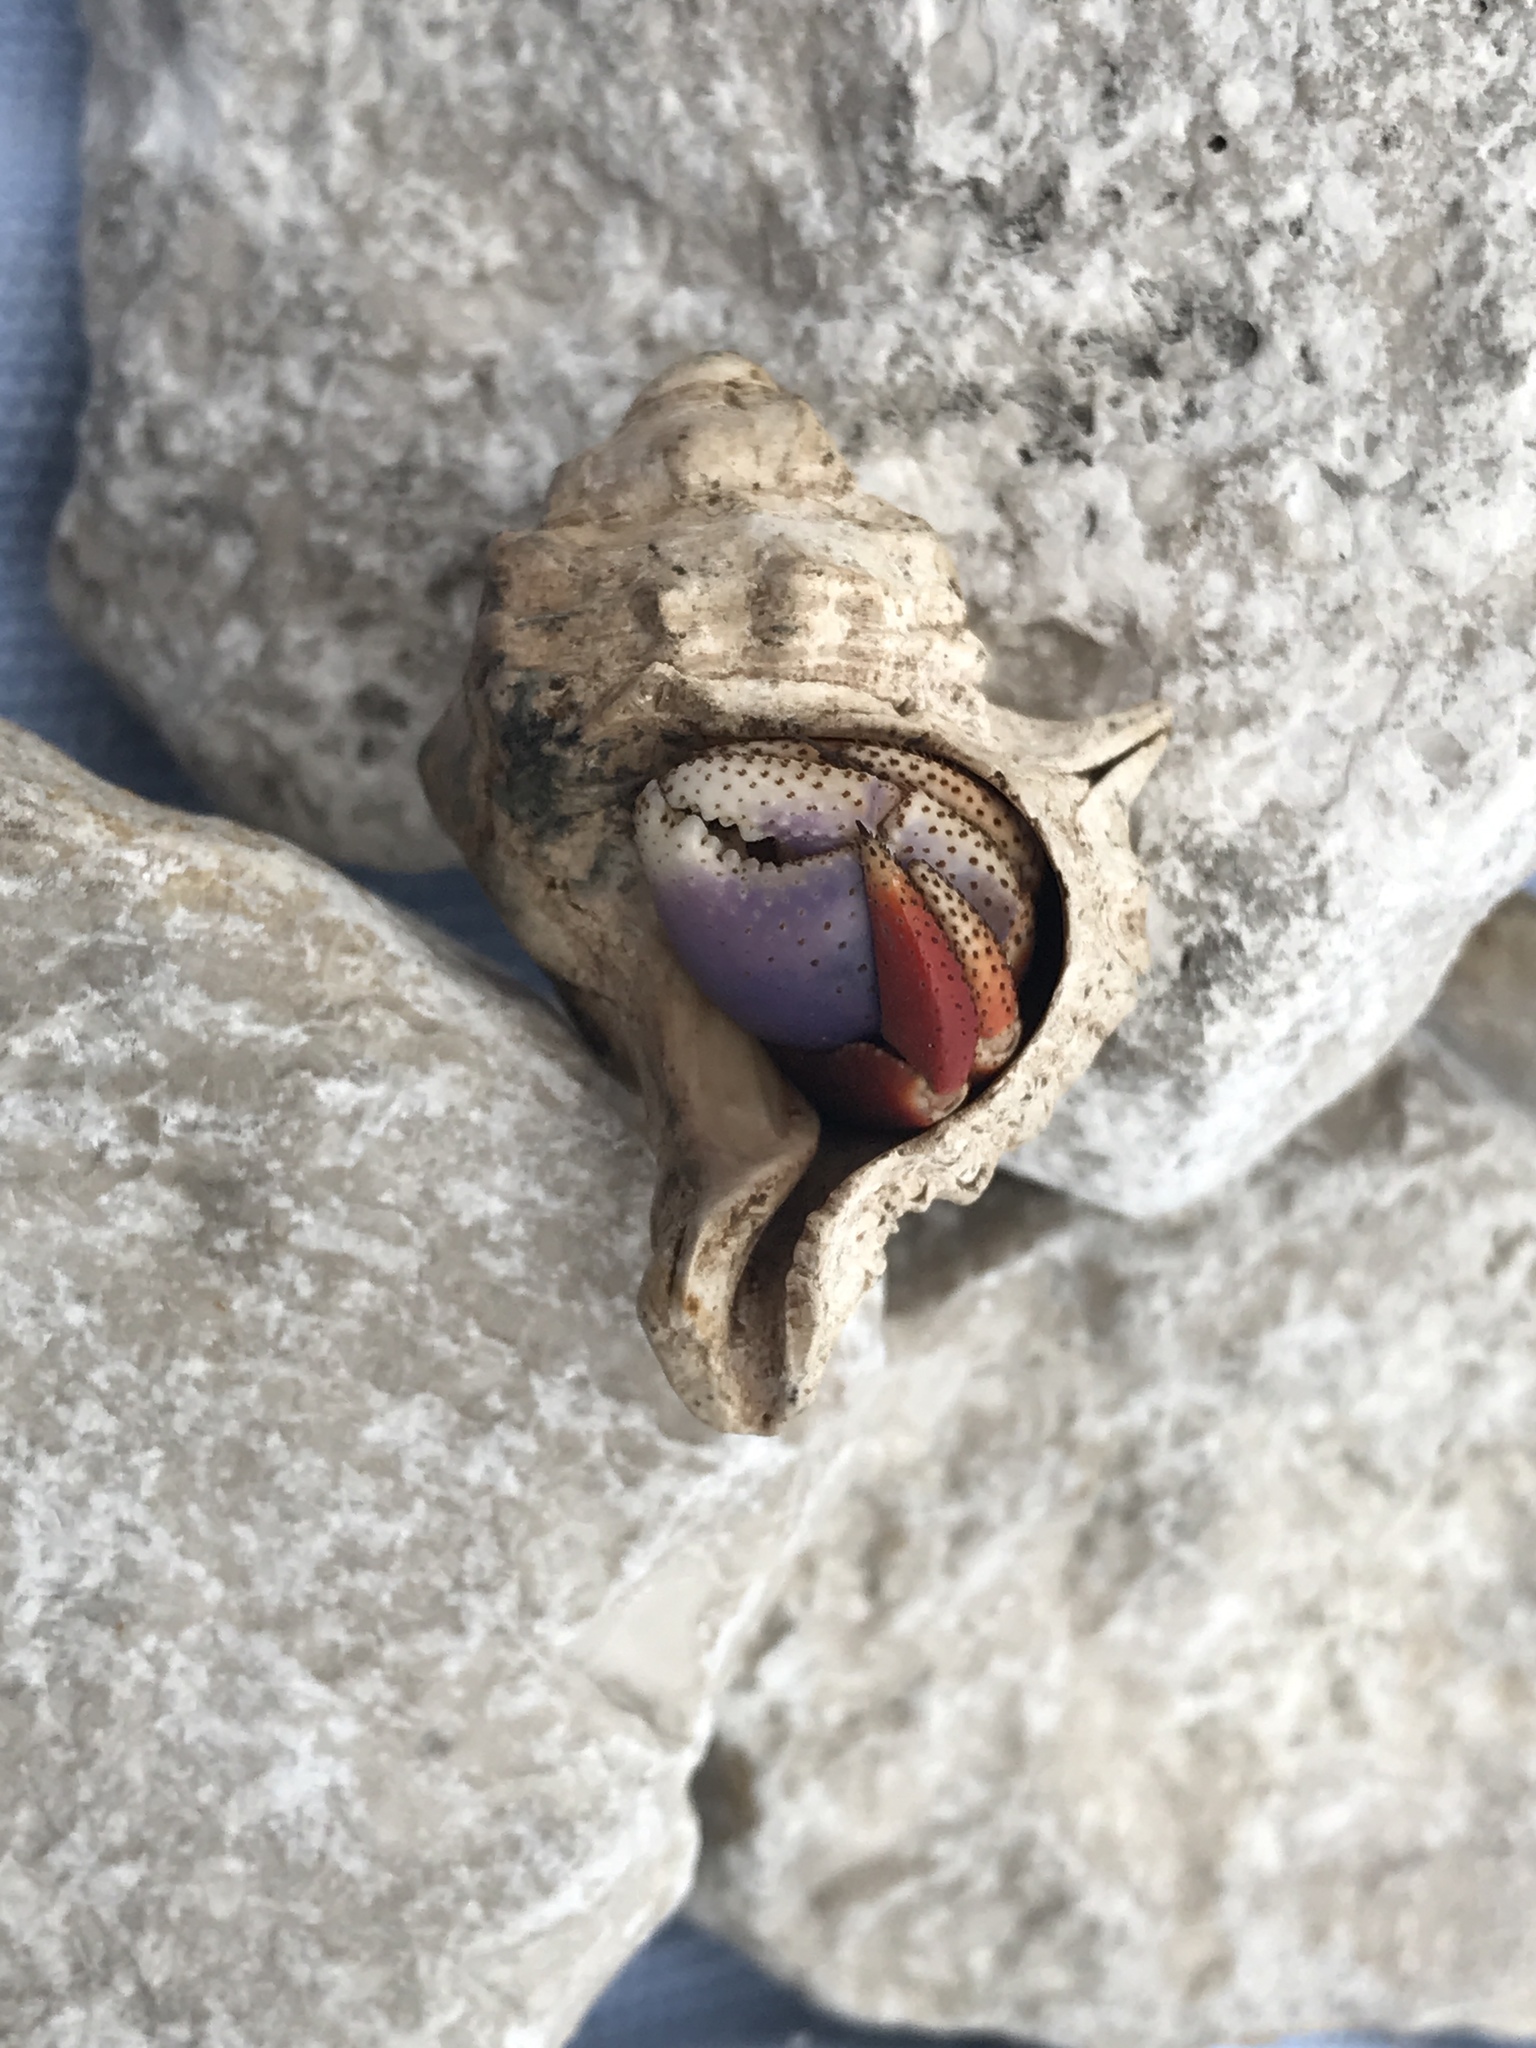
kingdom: Animalia
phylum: Arthropoda
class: Malacostraca
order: Decapoda
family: Coenobitidae
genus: Coenobita
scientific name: Coenobita clypeatus
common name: Caribbean hermit crab
